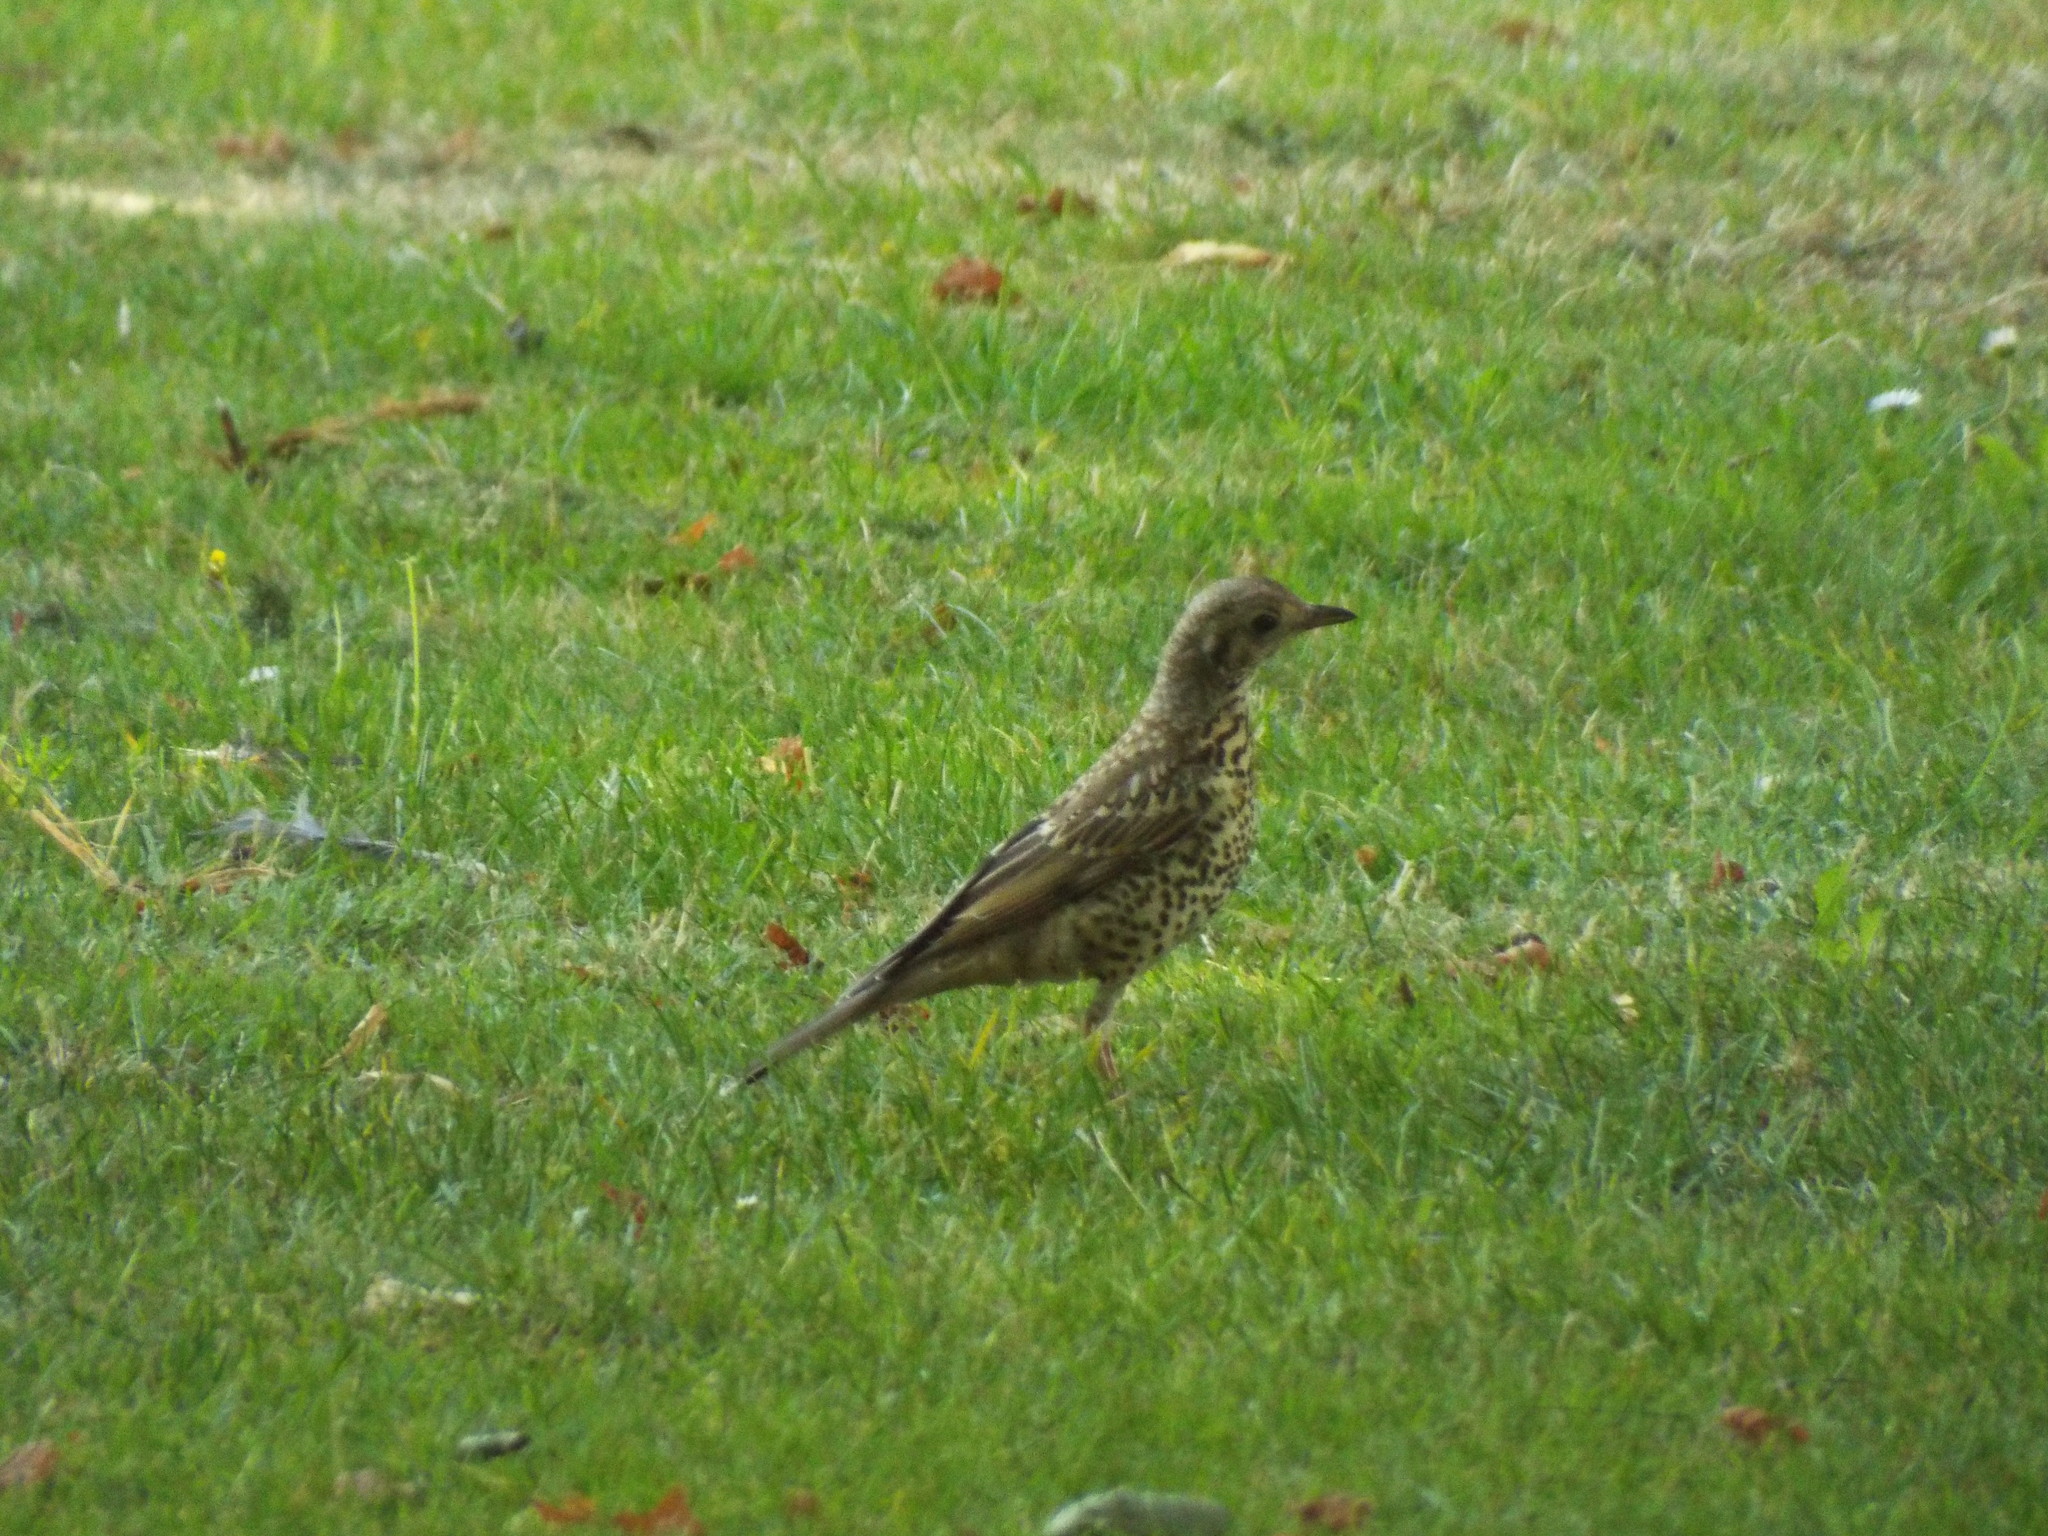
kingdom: Animalia
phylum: Chordata
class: Aves
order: Passeriformes
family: Turdidae
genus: Turdus
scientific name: Turdus viscivorus
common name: Mistle thrush
